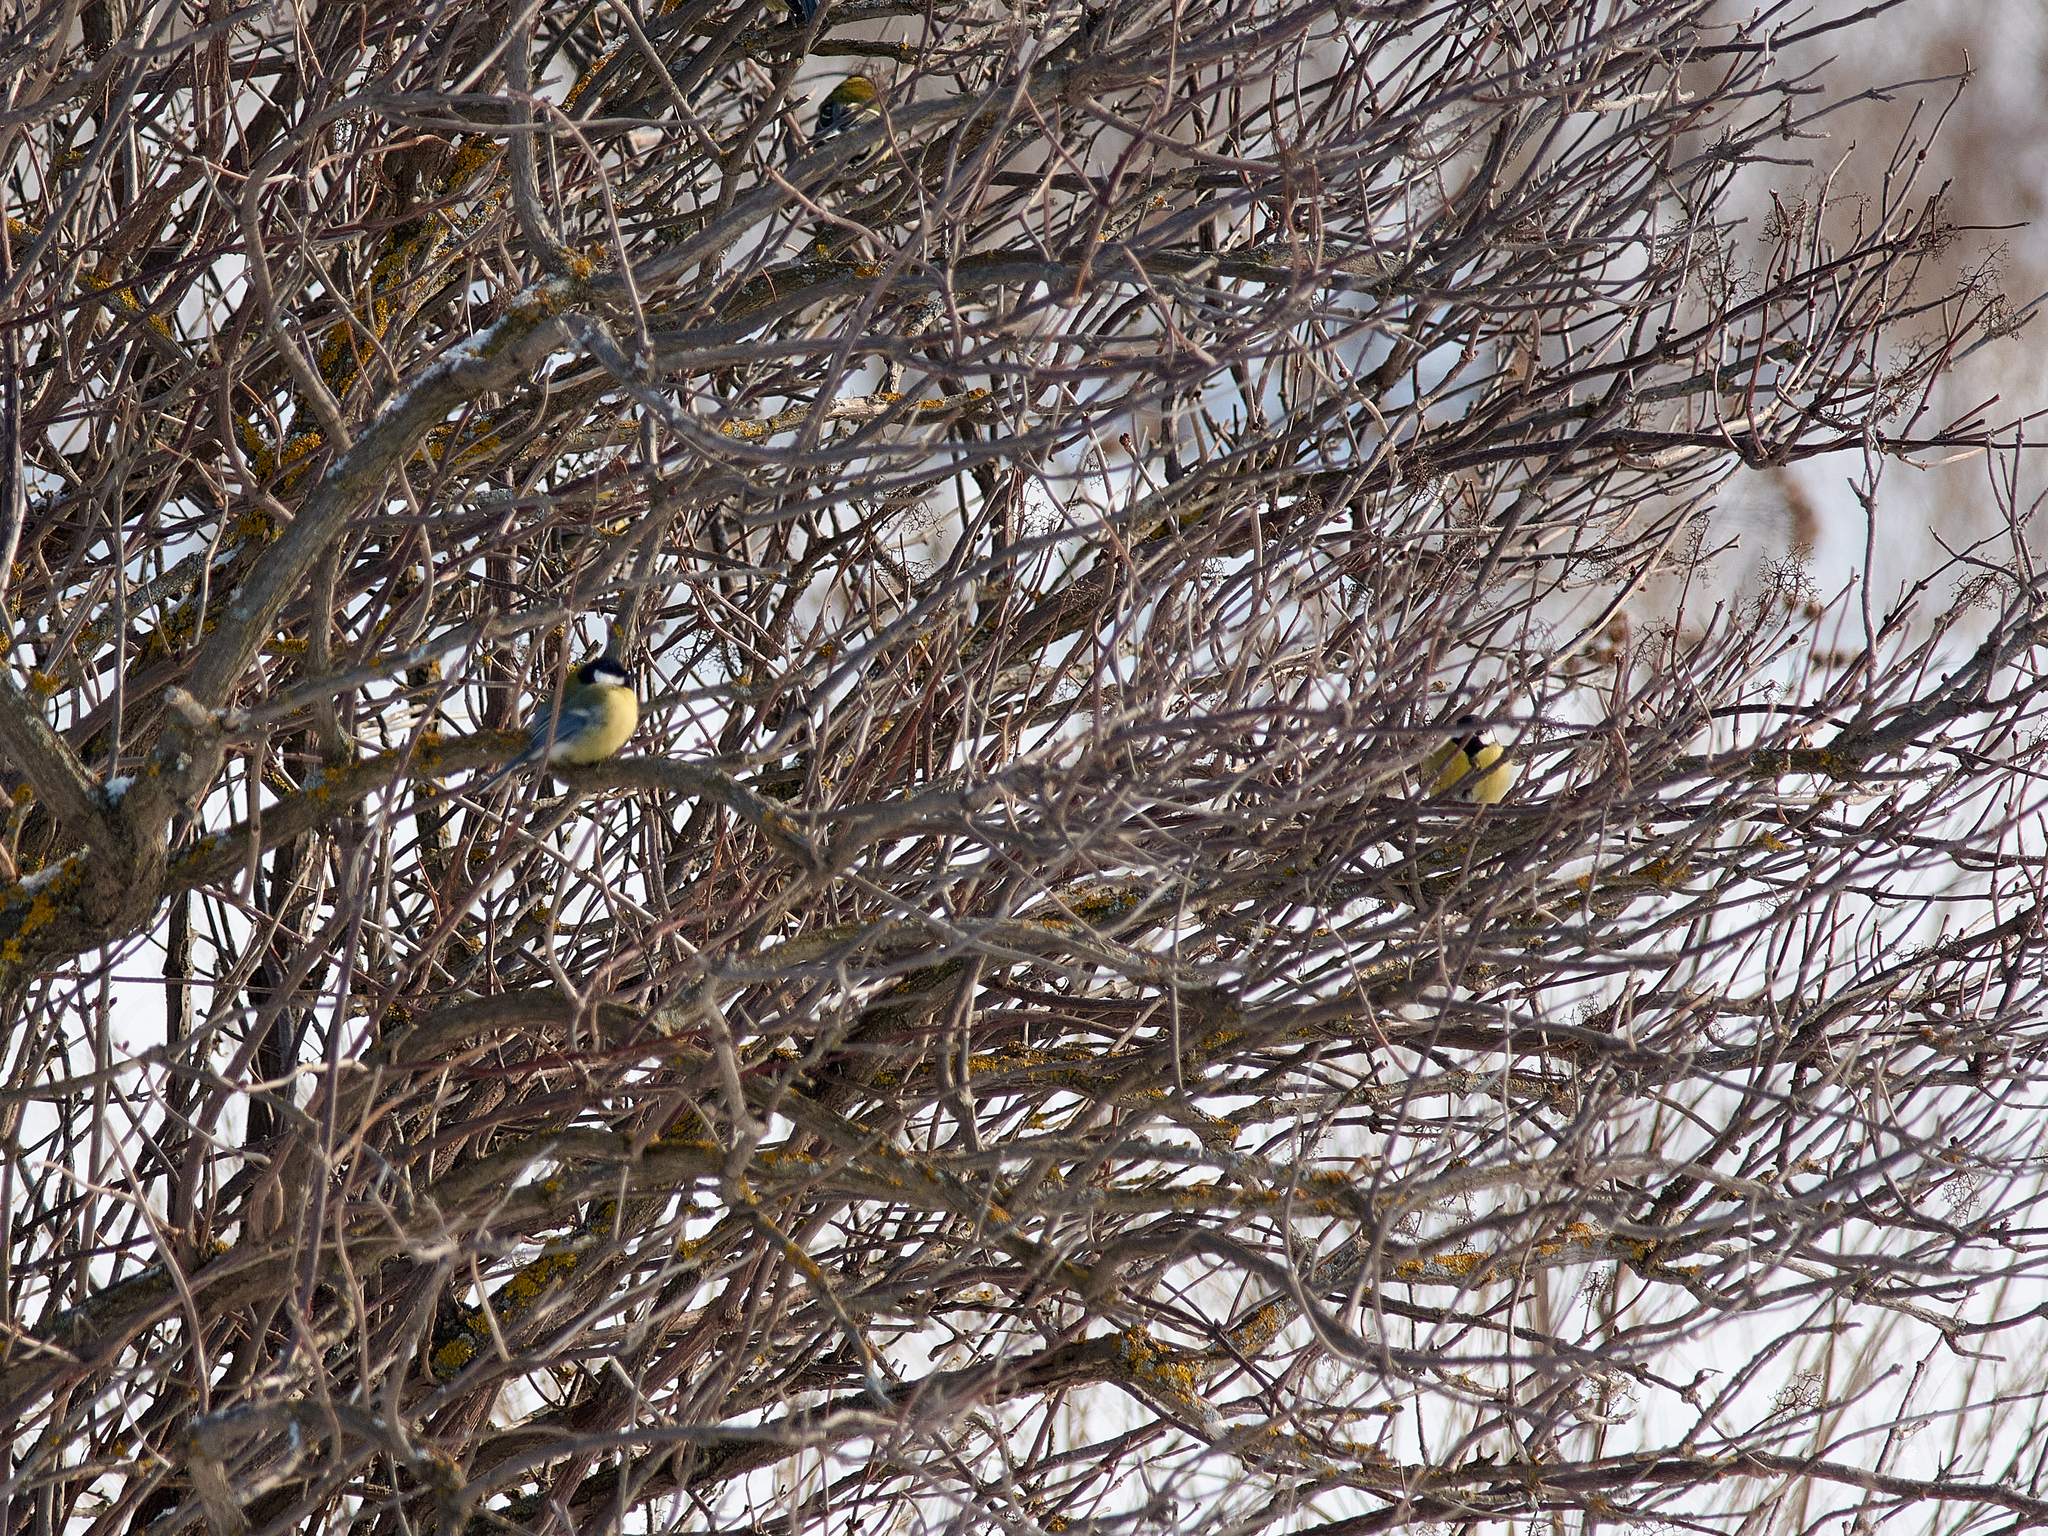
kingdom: Animalia
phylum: Chordata
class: Aves
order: Passeriformes
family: Paridae
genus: Parus
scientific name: Parus major
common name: Great tit
